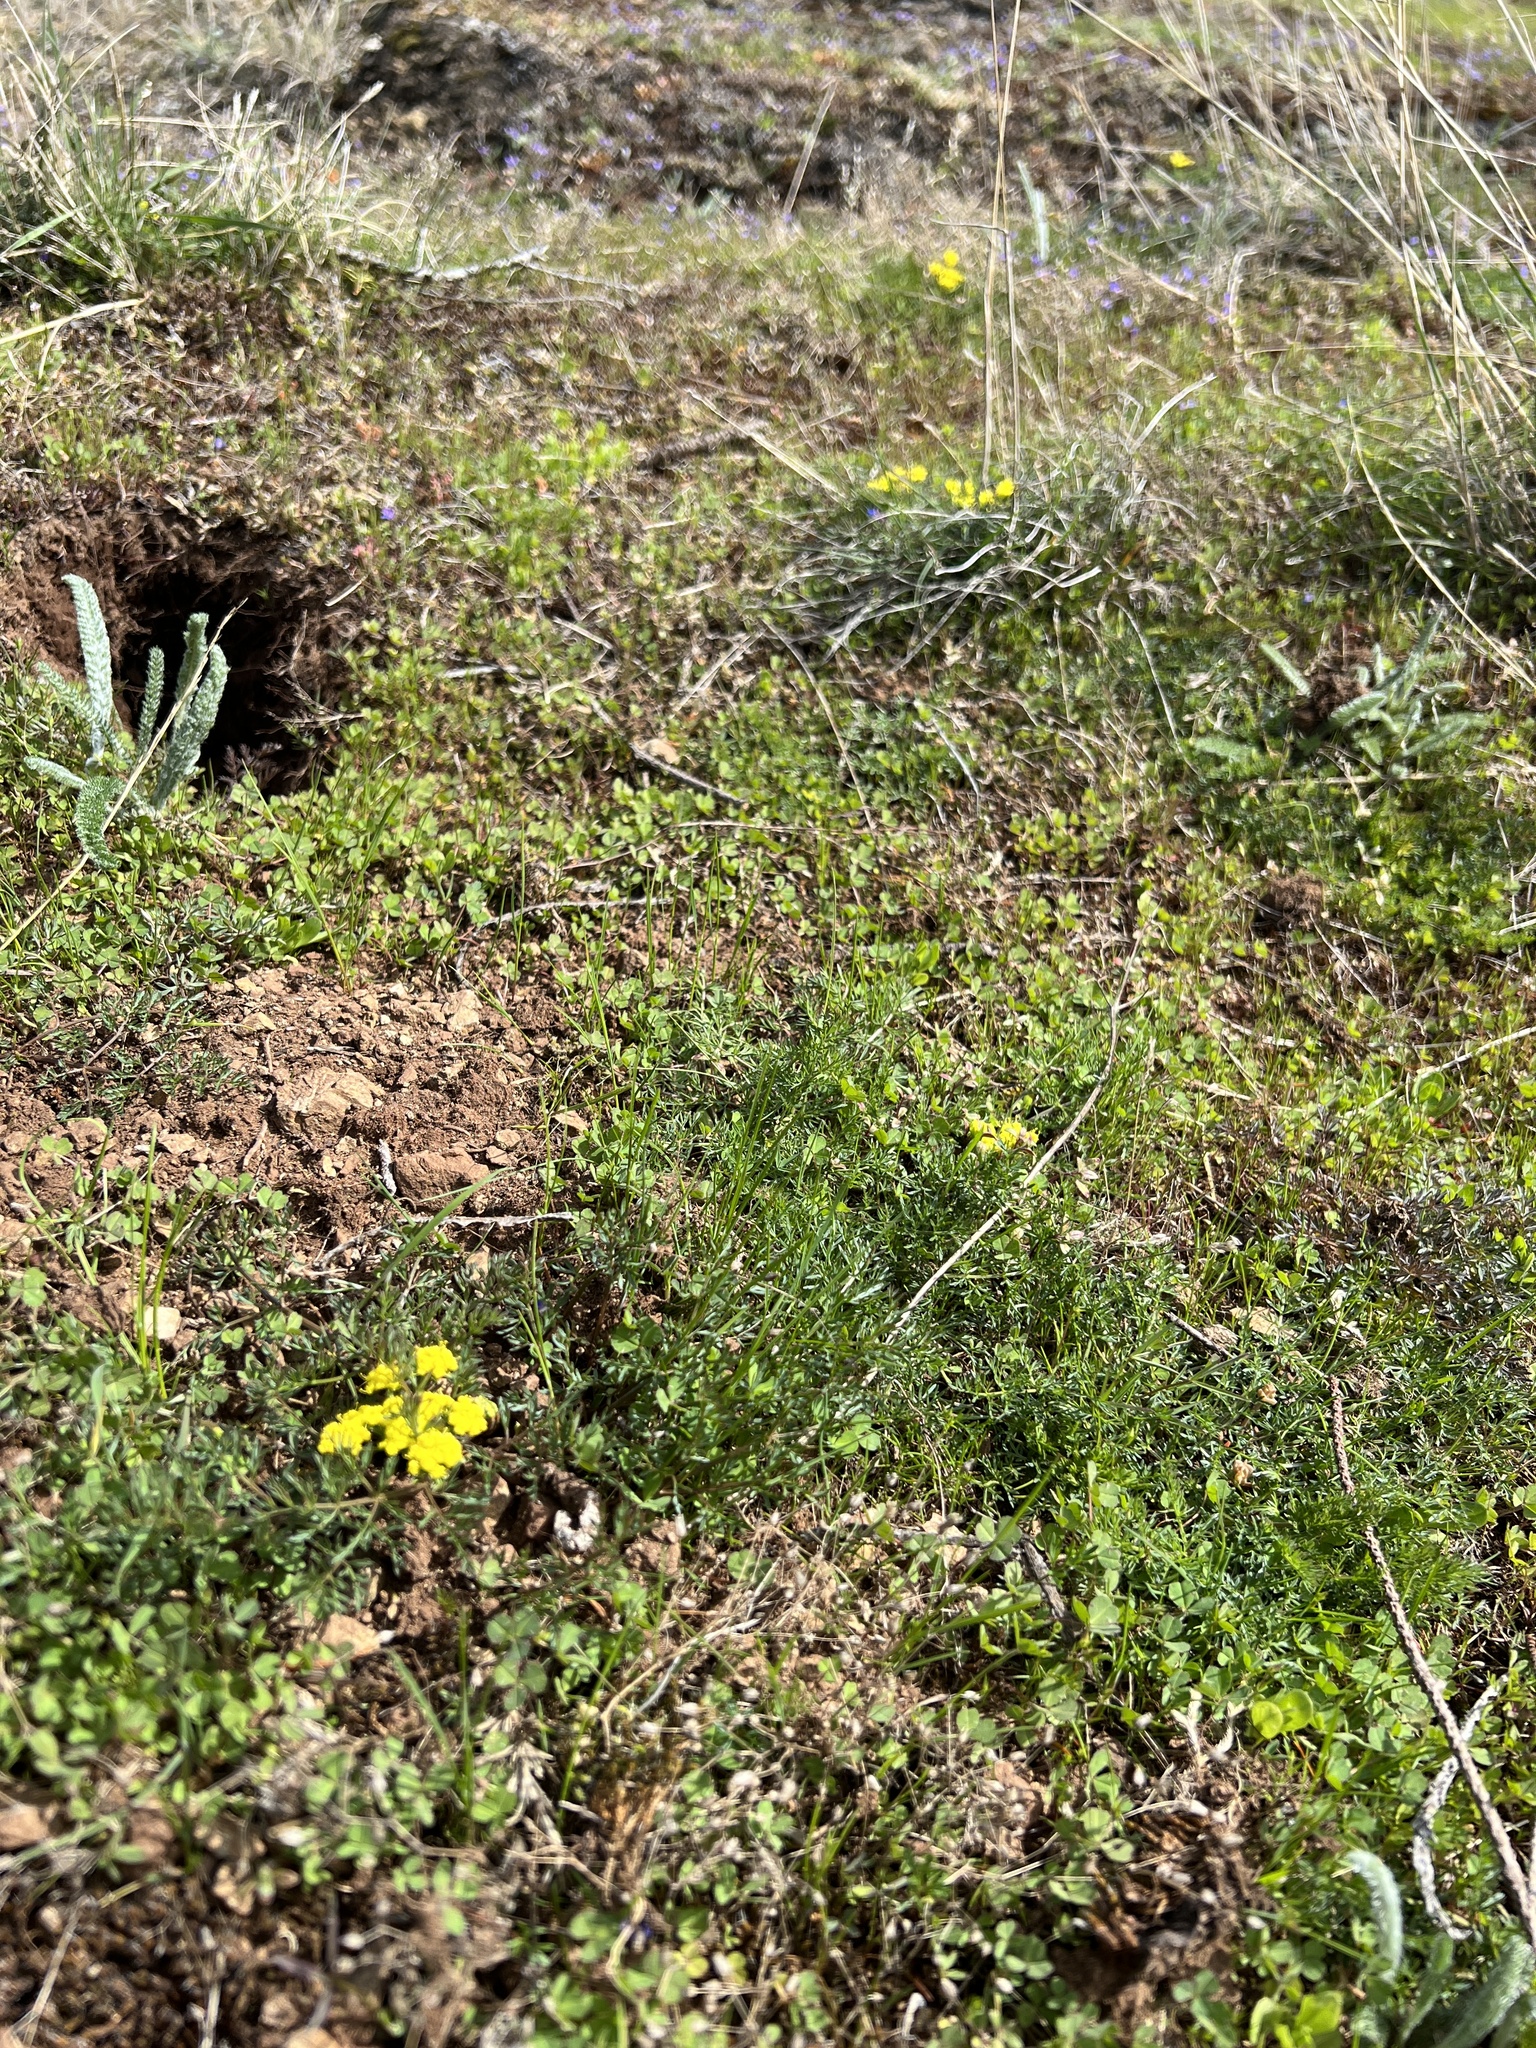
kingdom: Plantae
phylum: Tracheophyta
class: Magnoliopsida
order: Apiales
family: Apiaceae
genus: Lomatium
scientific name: Lomatium utriculatum
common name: Fine-leaf desert-parsley
